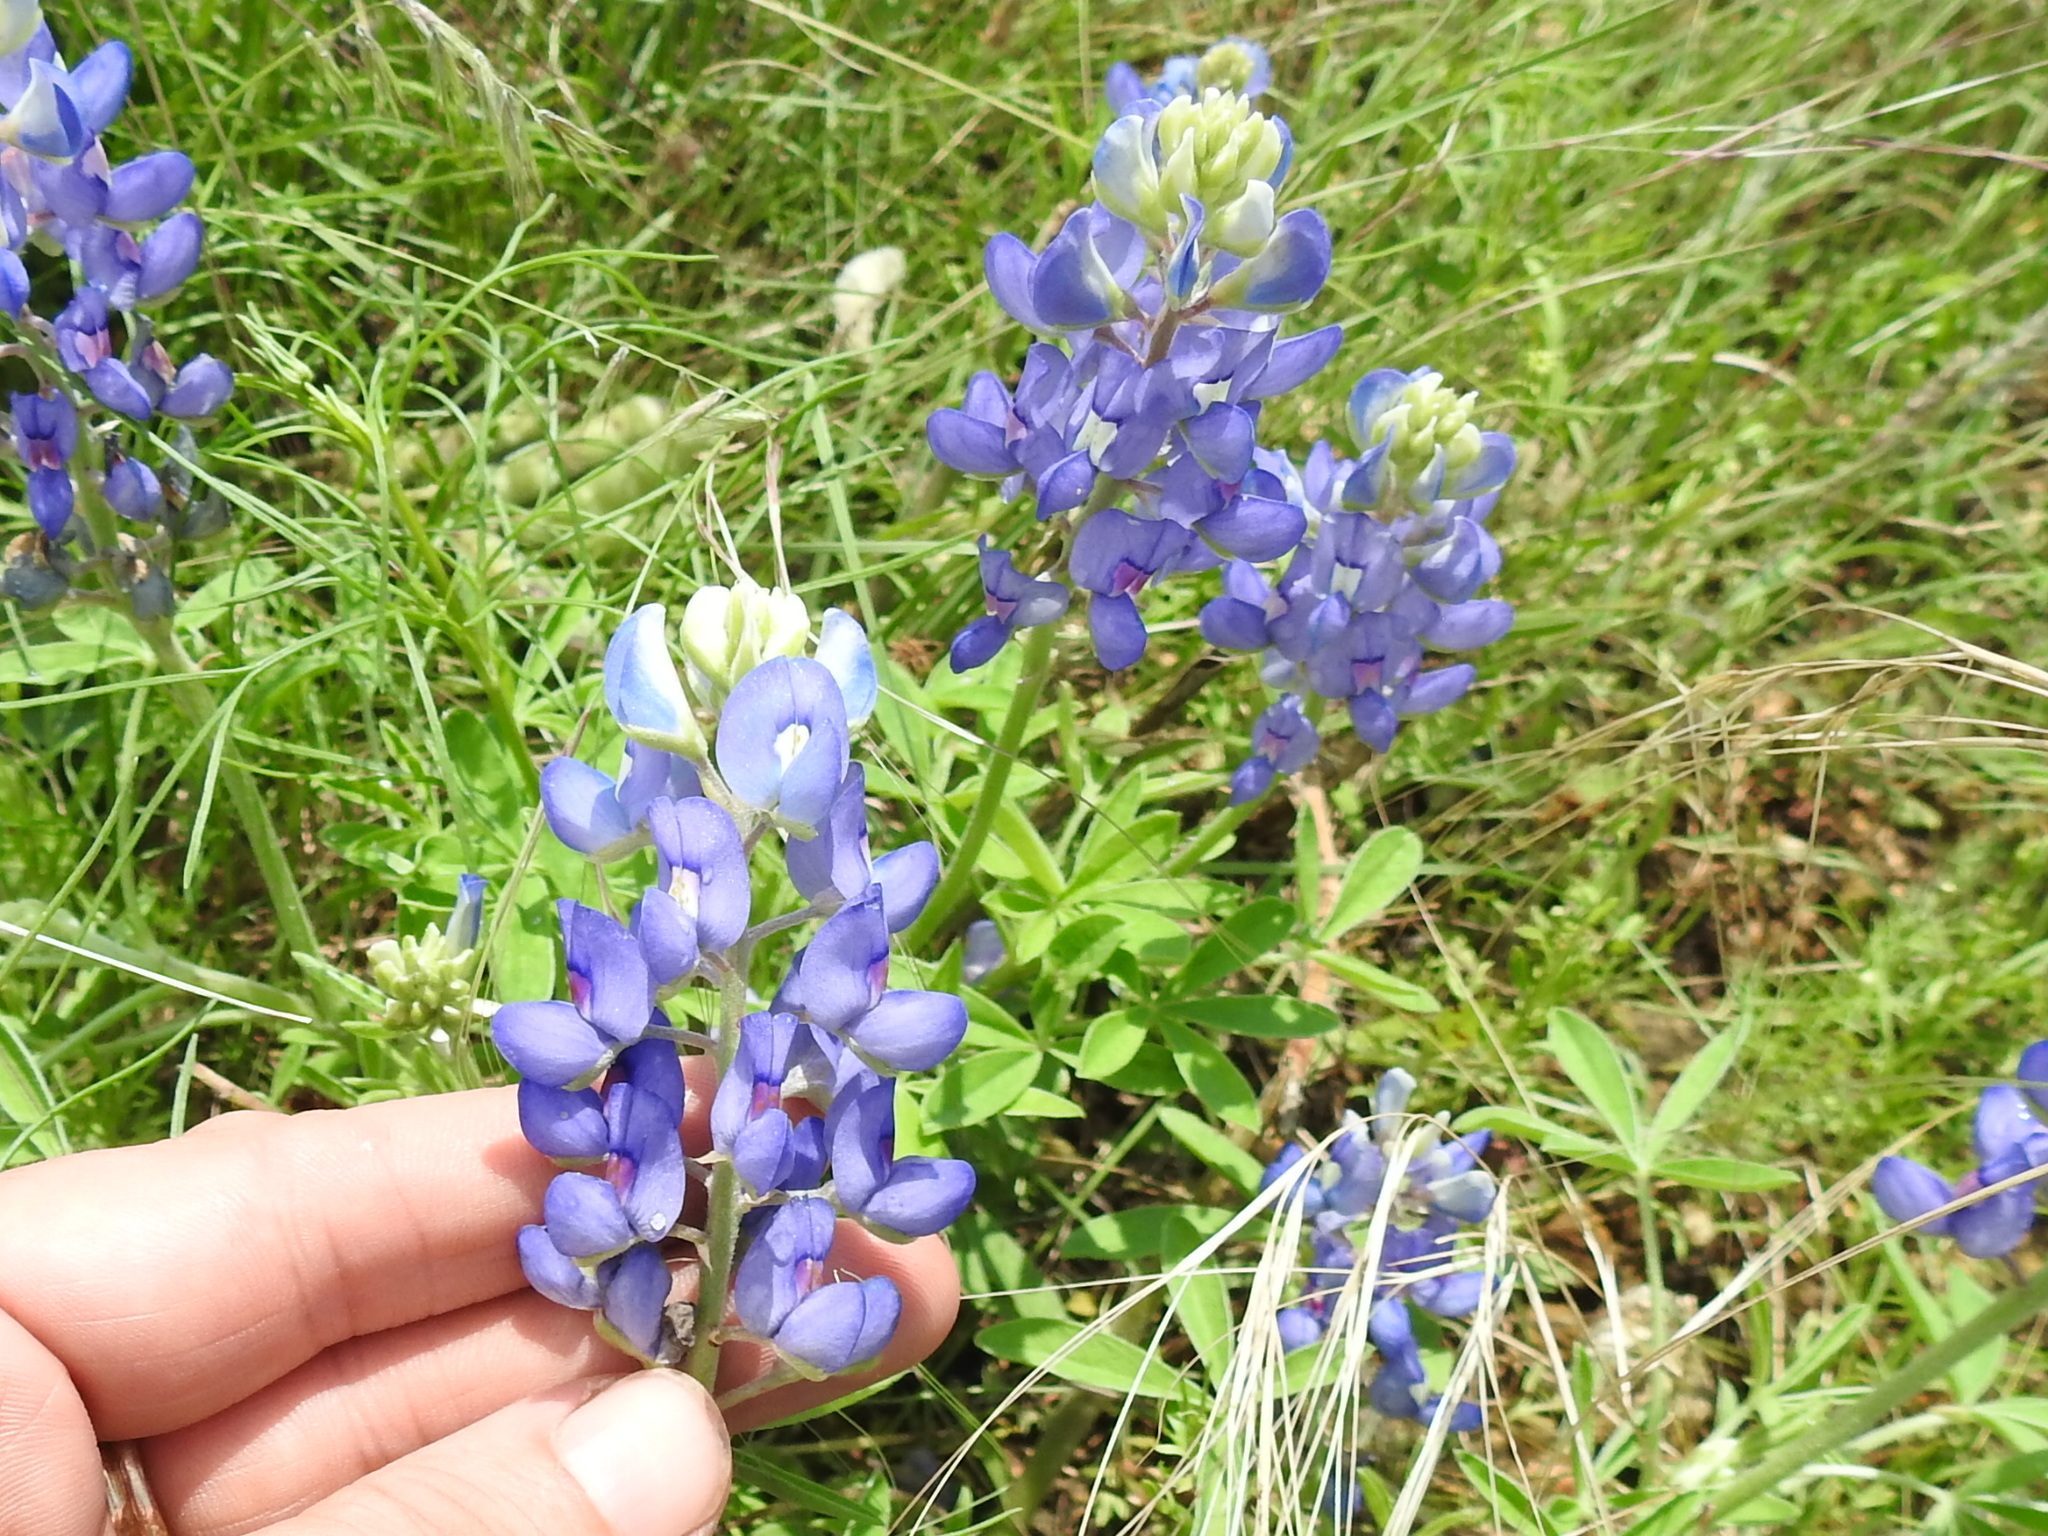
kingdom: Plantae
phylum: Tracheophyta
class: Magnoliopsida
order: Fabales
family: Fabaceae
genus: Lupinus
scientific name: Lupinus texensis
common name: Texas bluebonnet
